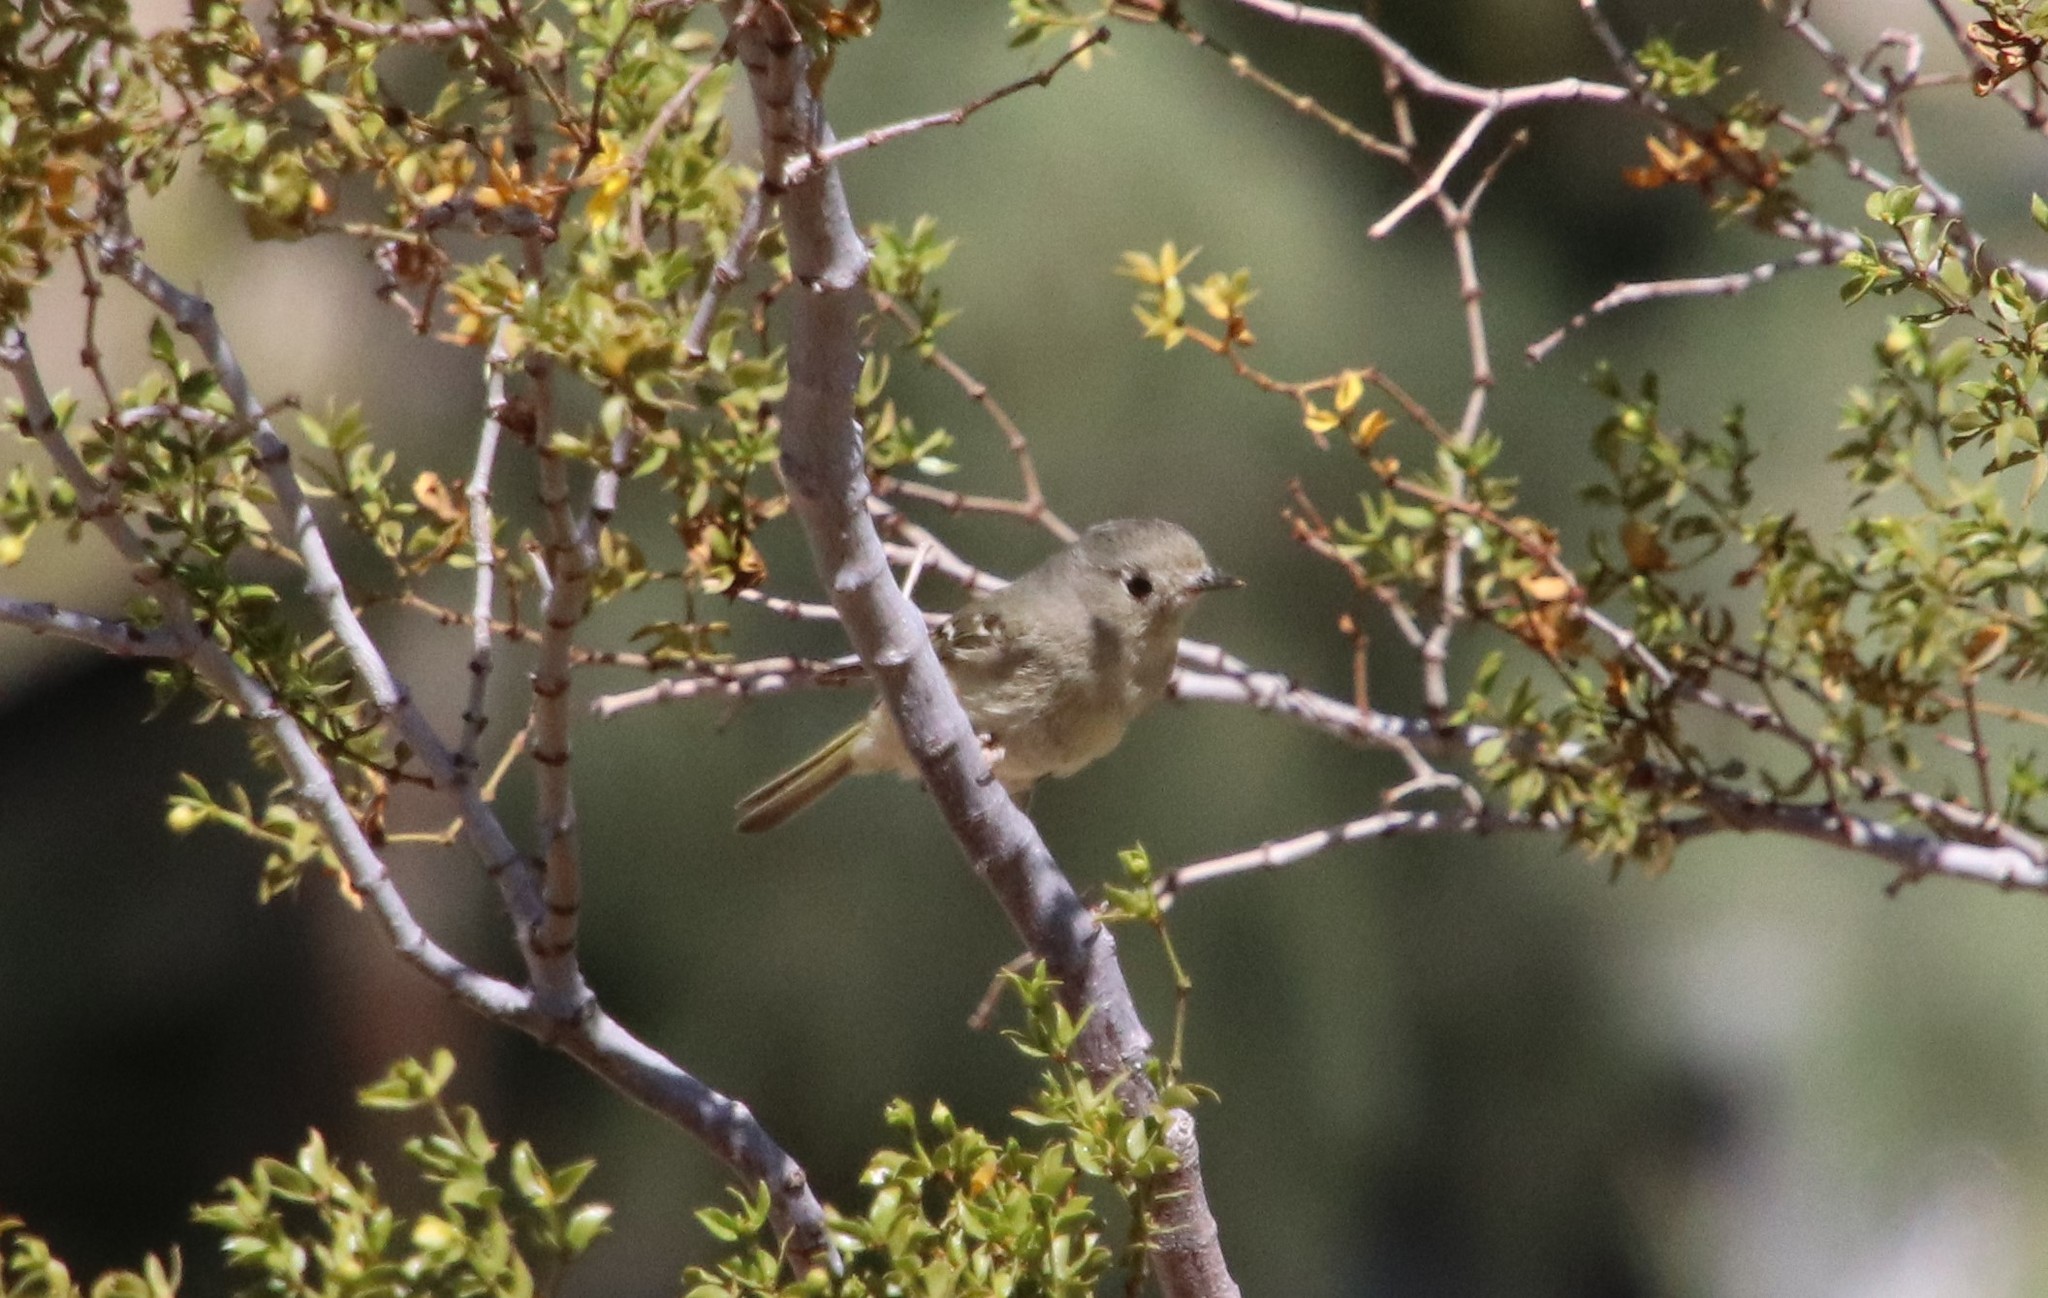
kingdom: Animalia
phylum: Chordata
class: Aves
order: Passeriformes
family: Regulidae
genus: Regulus
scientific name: Regulus calendula
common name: Ruby-crowned kinglet
